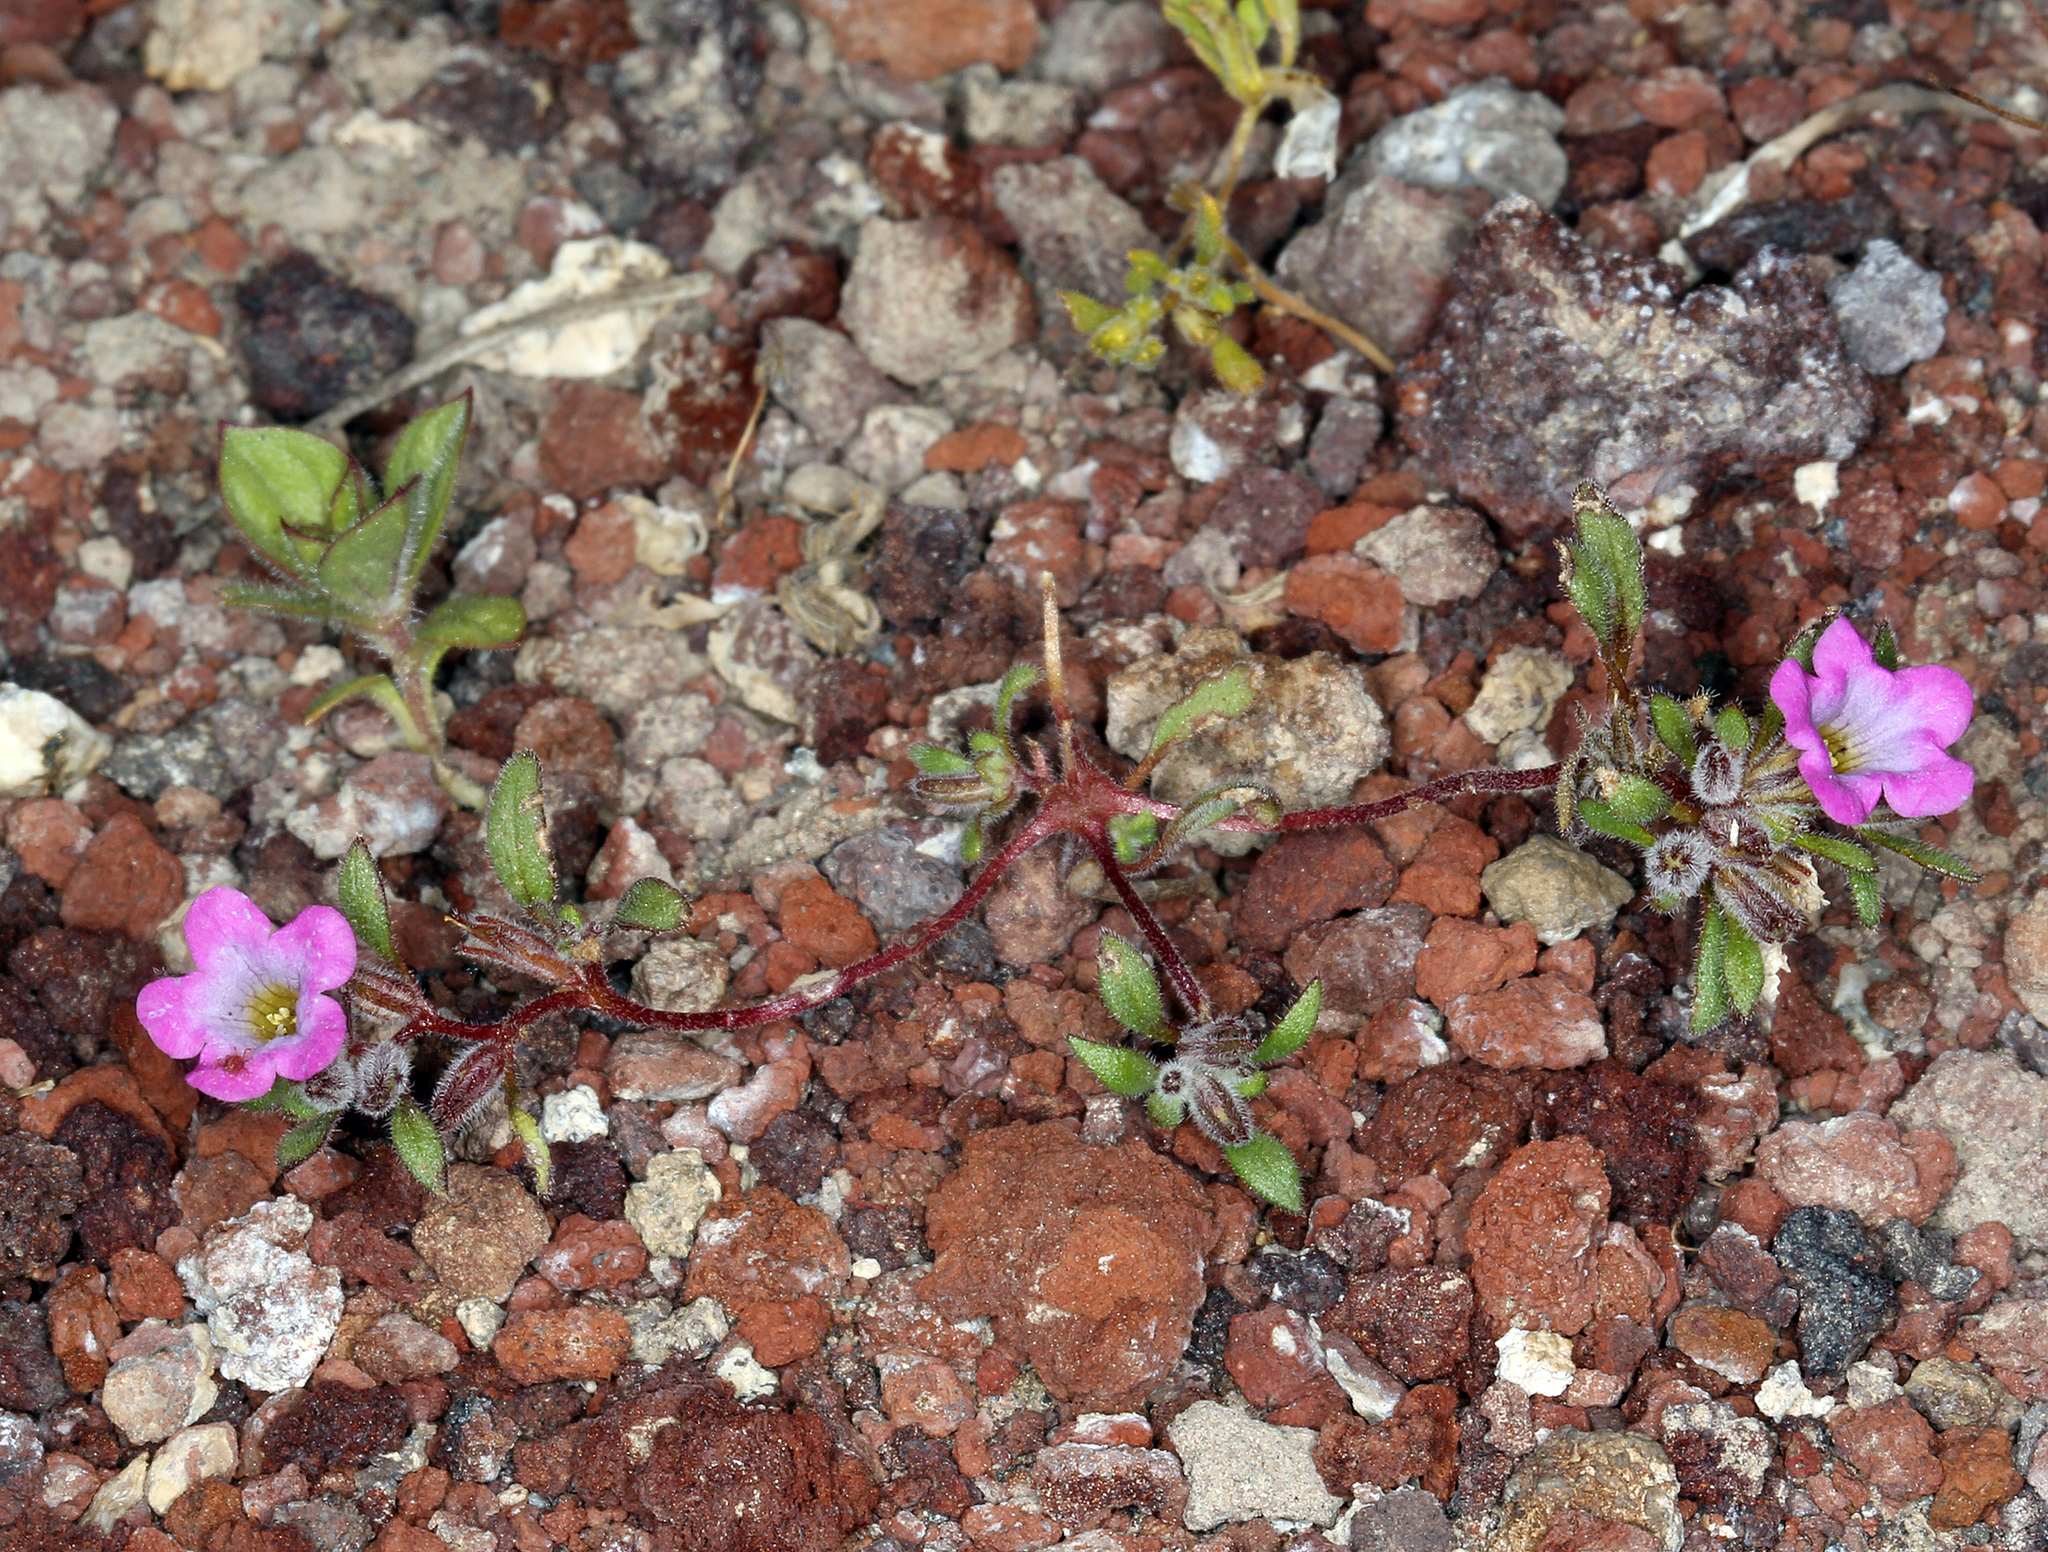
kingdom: Plantae
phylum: Tracheophyta
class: Magnoliopsida
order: Boraginales
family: Namaceae
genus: Nama
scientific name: Nama demissa
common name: Leafy nama
